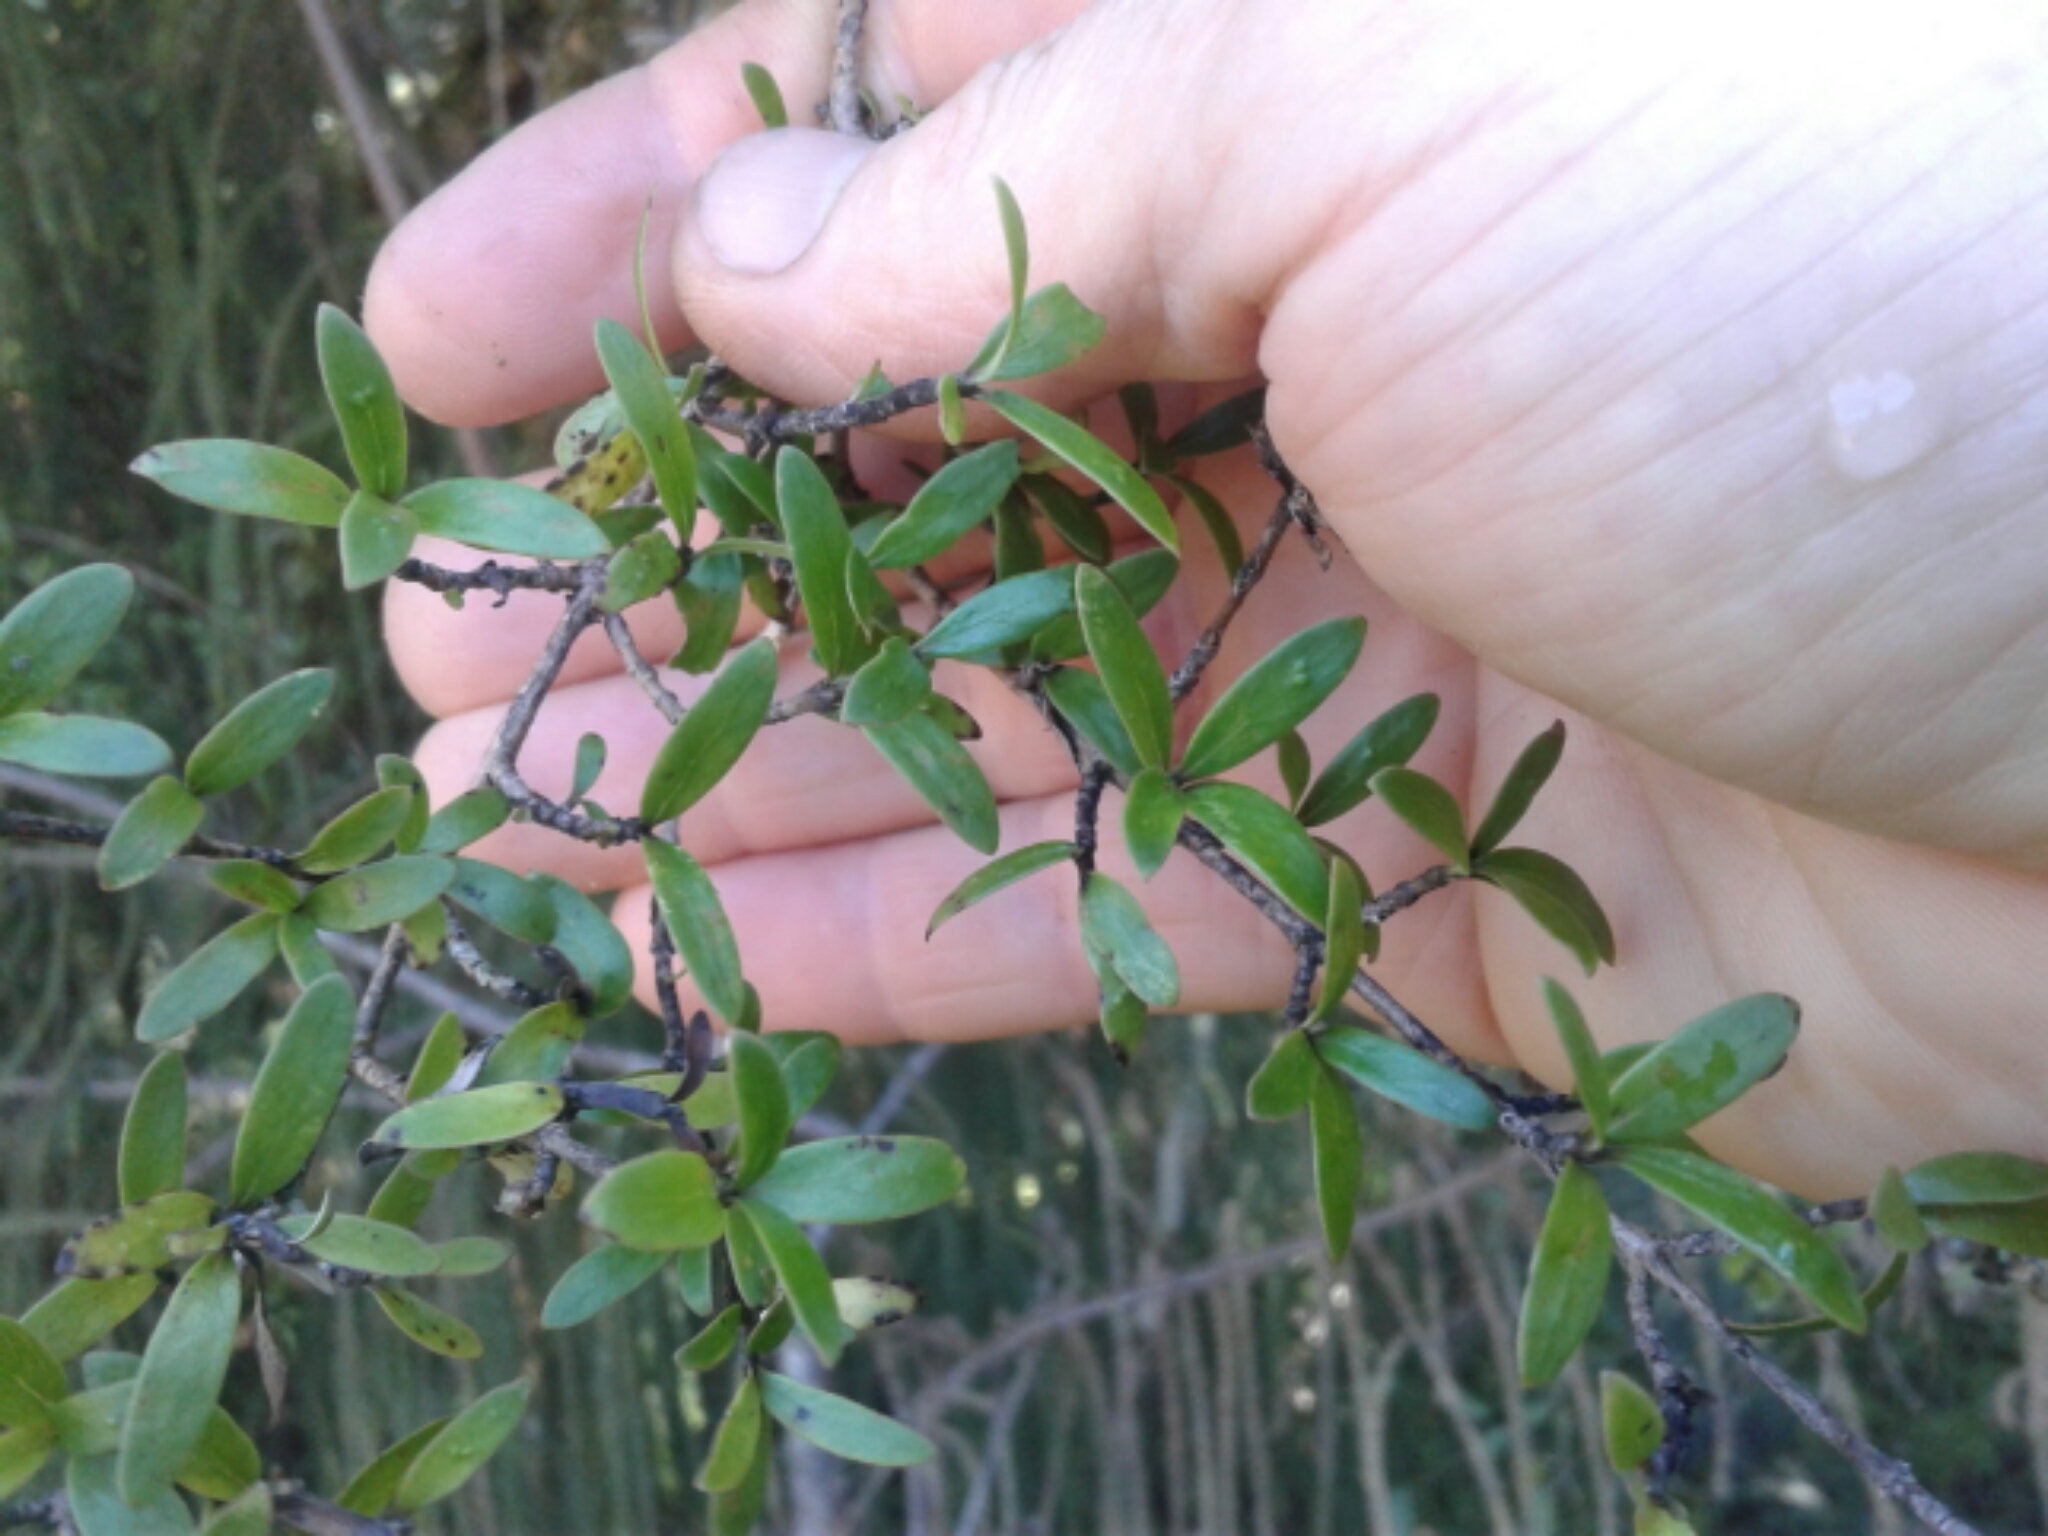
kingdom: Plantae
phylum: Tracheophyta
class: Magnoliopsida
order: Gentianales
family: Rubiaceae
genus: Coprosma
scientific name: Coprosma propinqua
